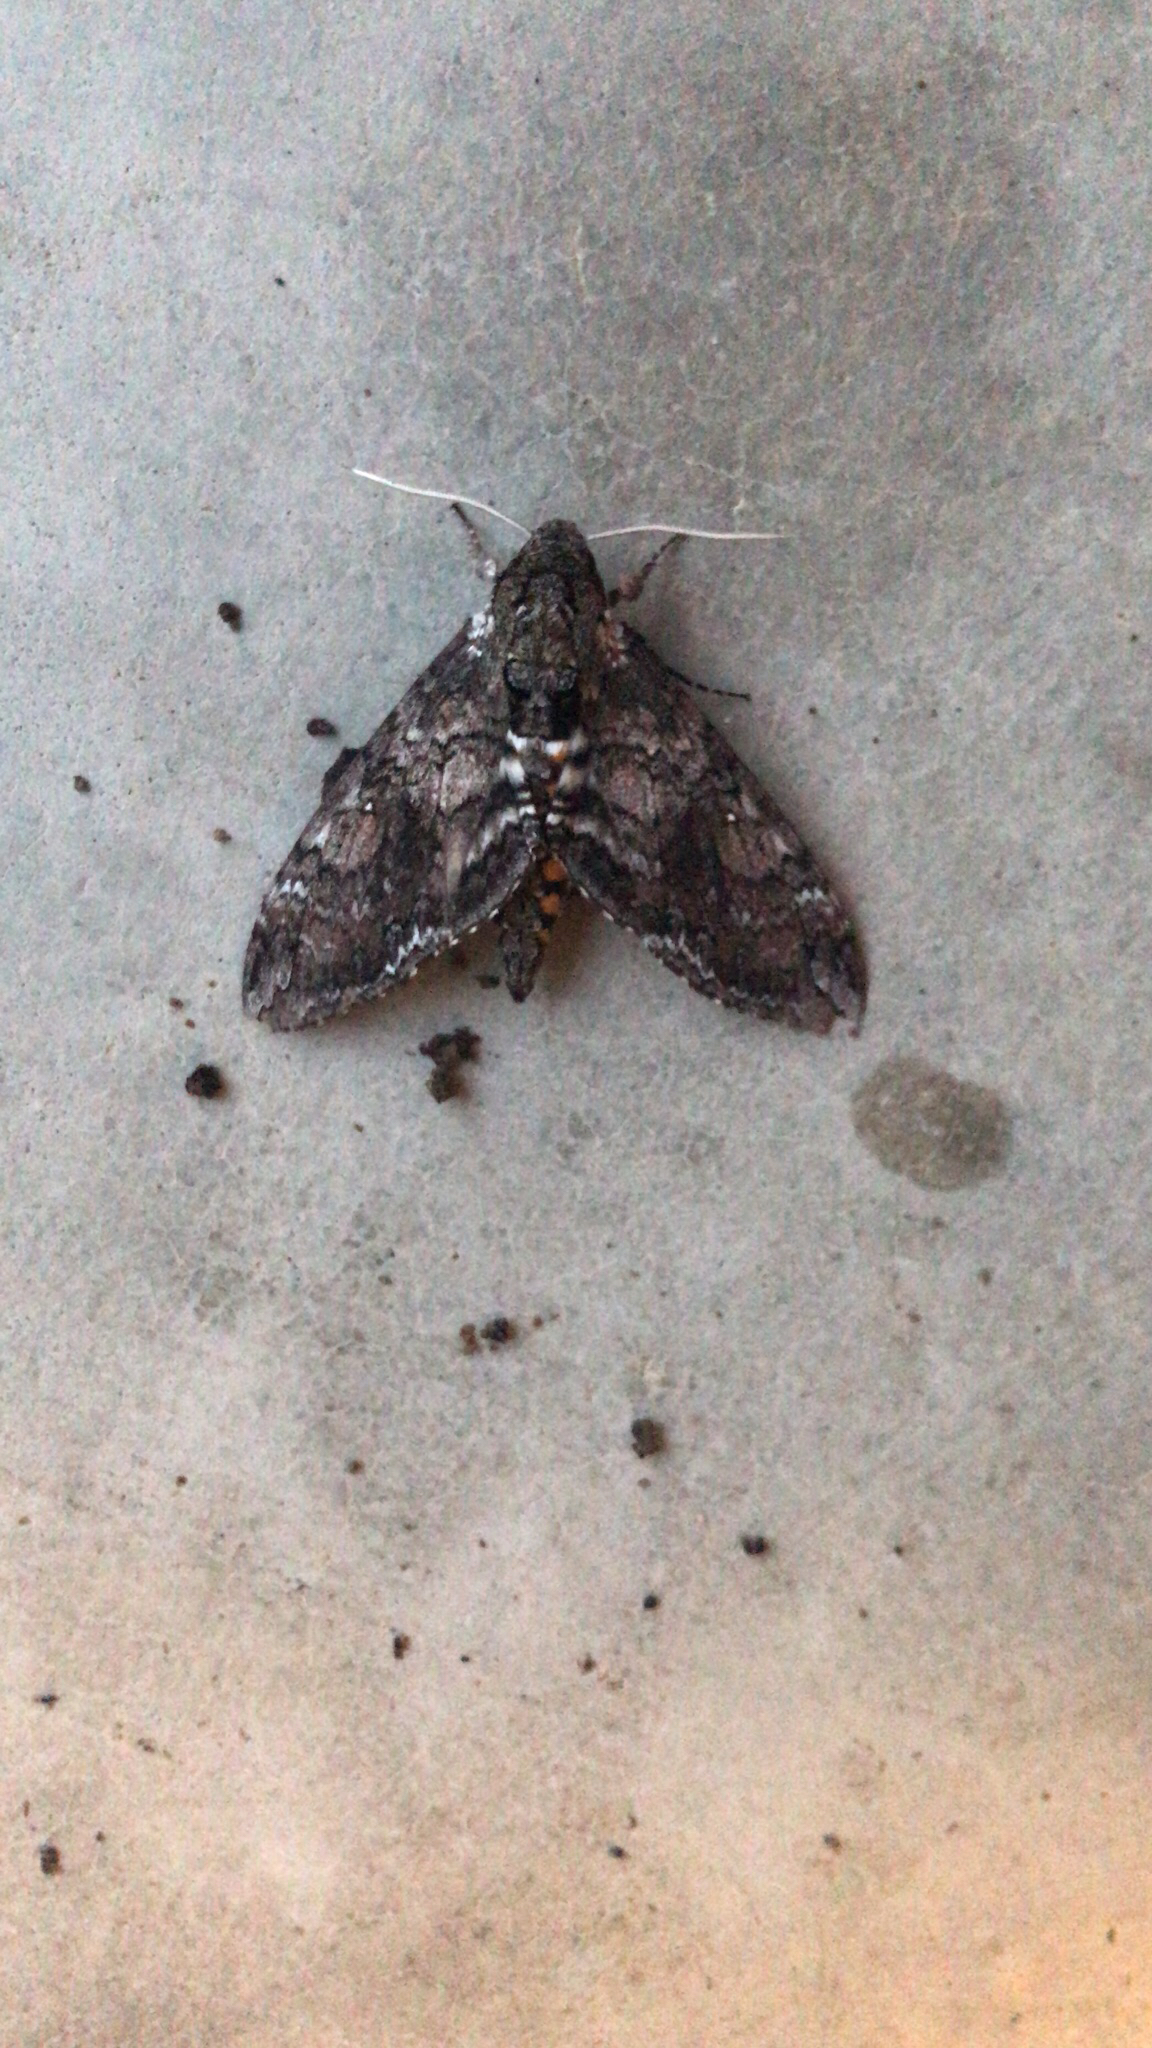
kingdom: Animalia
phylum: Arthropoda
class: Insecta
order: Lepidoptera
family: Sphingidae
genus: Manduca
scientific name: Manduca sexta
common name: Carolina sphinx
